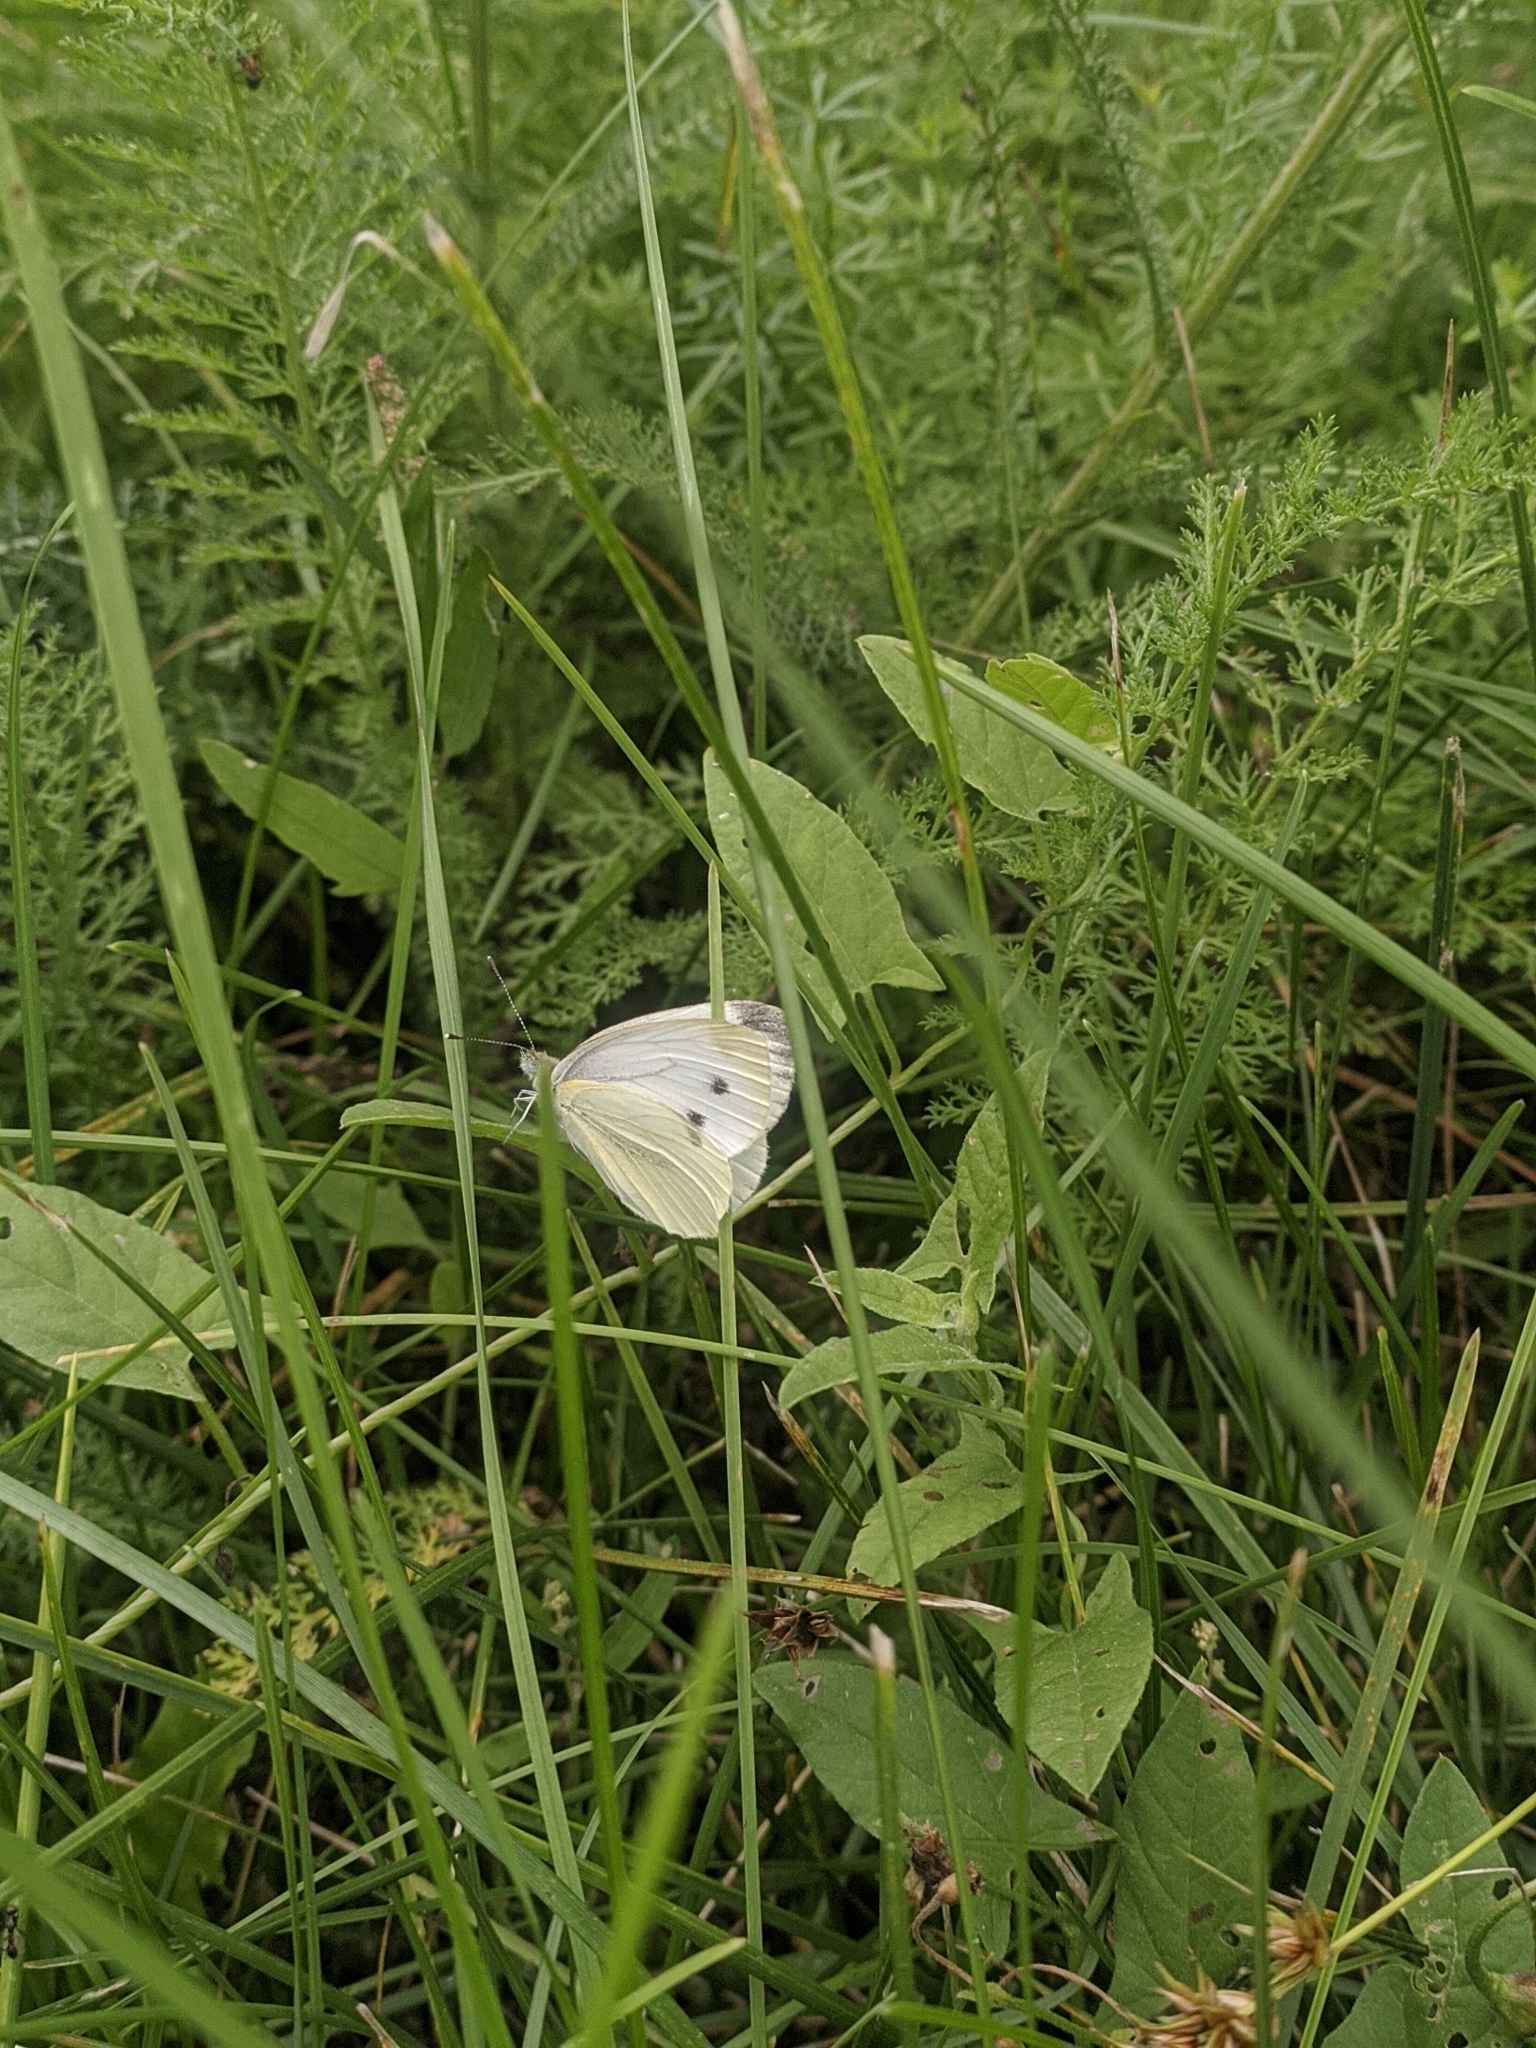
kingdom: Animalia
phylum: Arthropoda
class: Insecta
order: Lepidoptera
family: Pieridae
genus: Pieris
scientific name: Pieris napi
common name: Green-veined white
